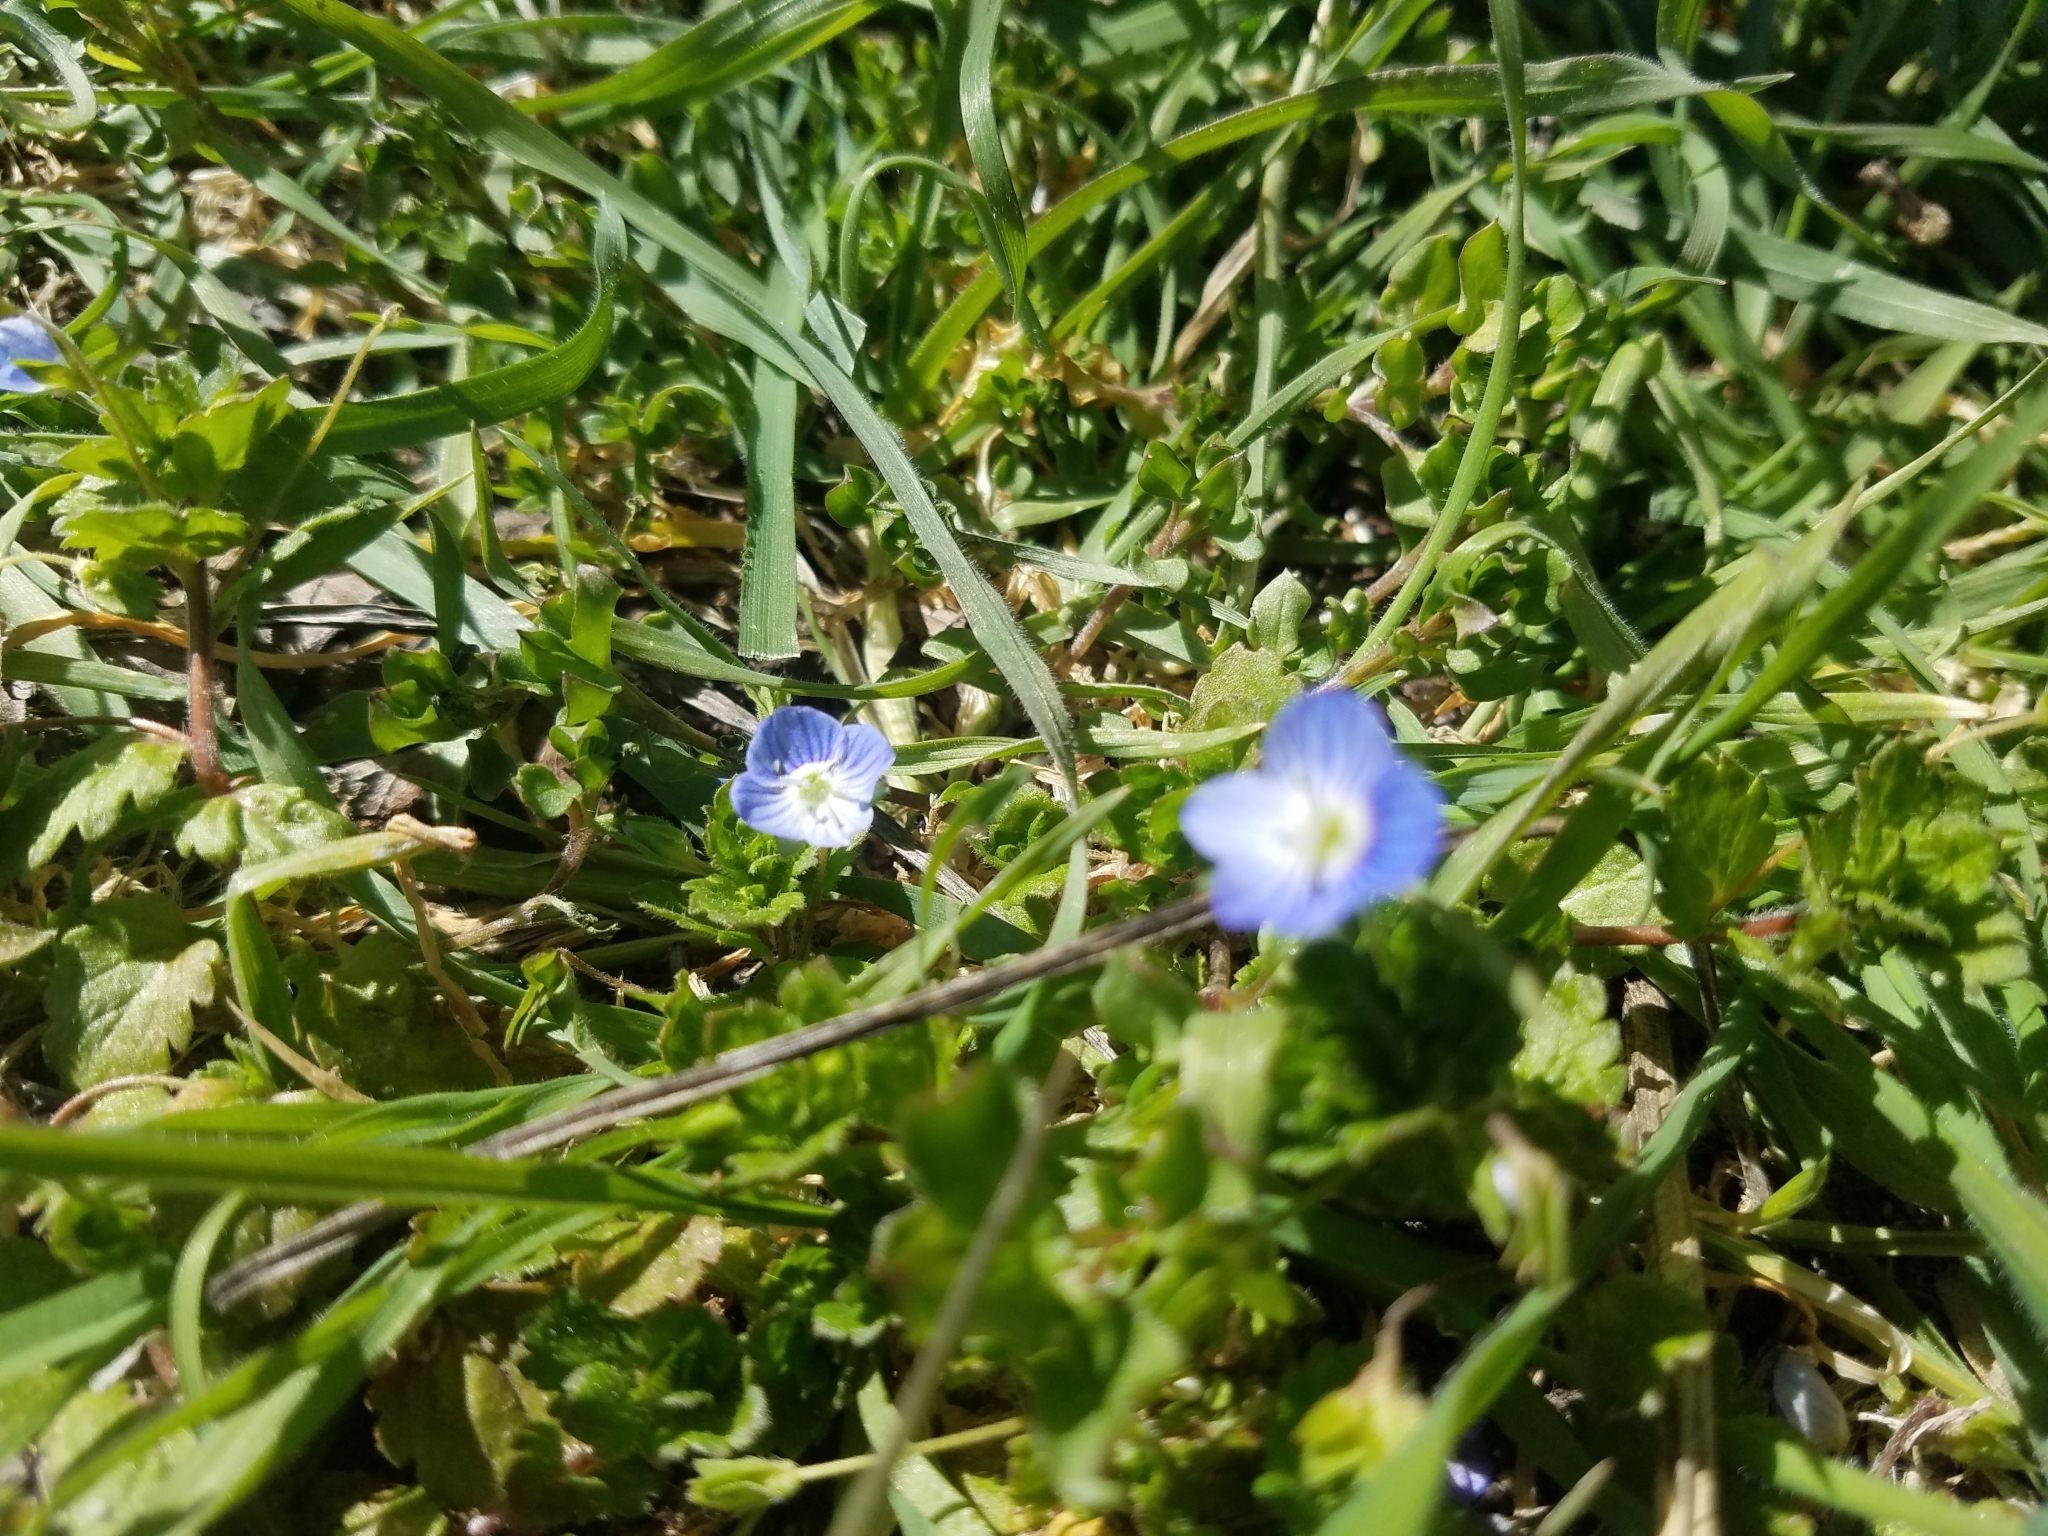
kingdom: Plantae
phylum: Tracheophyta
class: Magnoliopsida
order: Lamiales
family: Plantaginaceae
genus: Veronica
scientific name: Veronica persica
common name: Common field-speedwell
